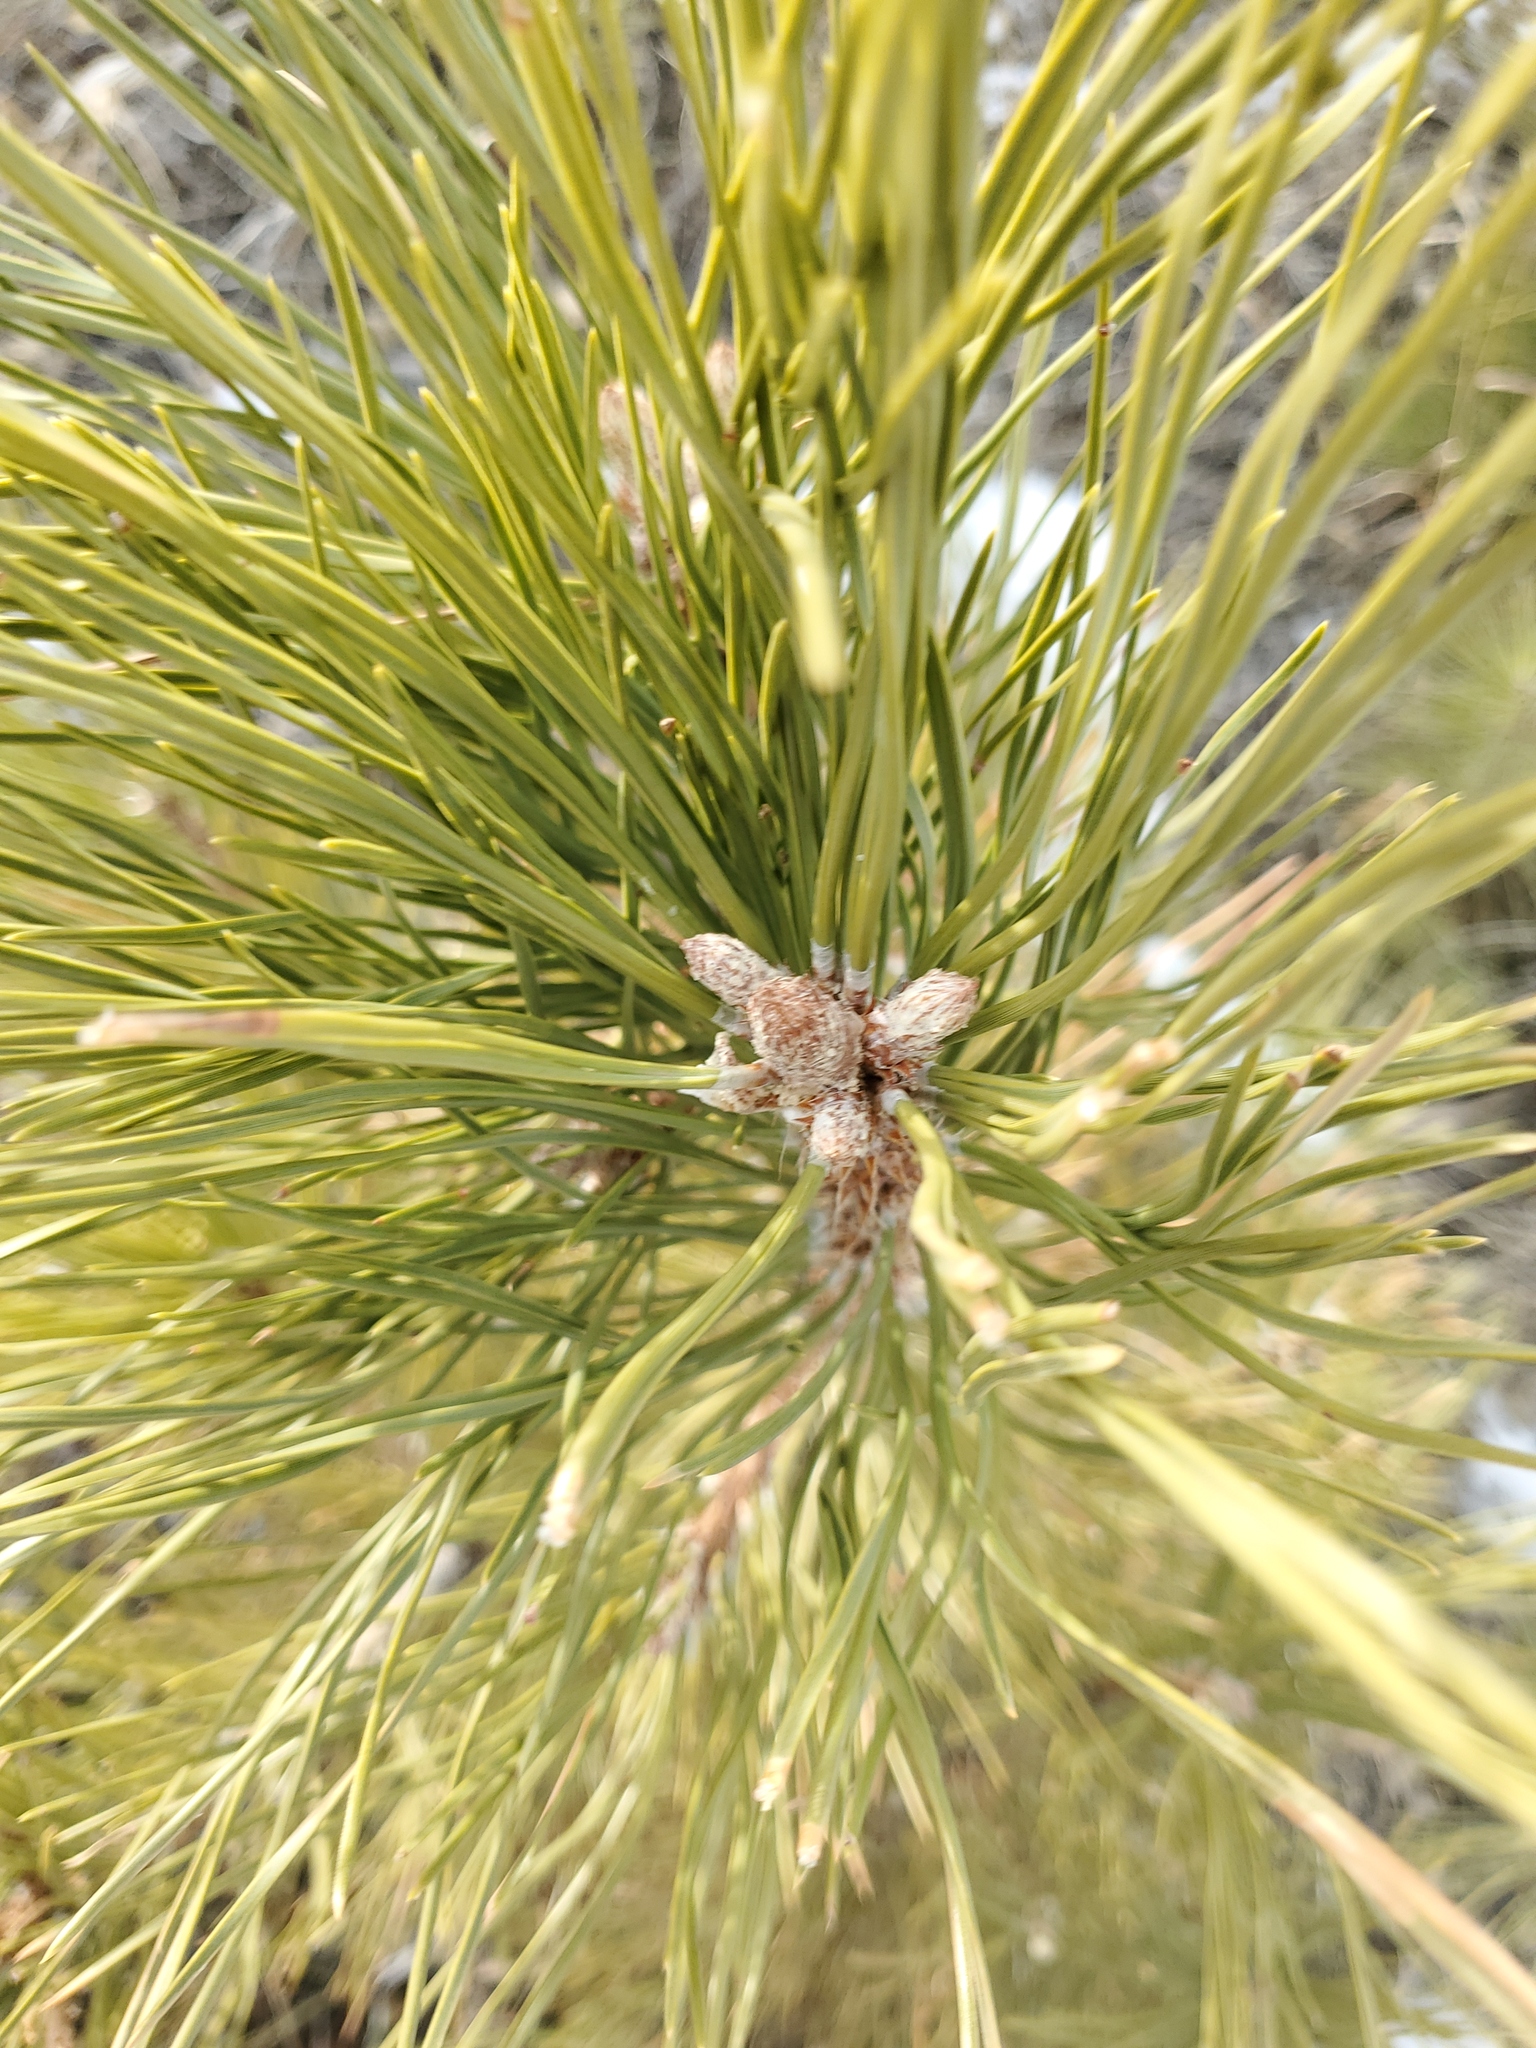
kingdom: Plantae
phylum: Tracheophyta
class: Pinopsida
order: Pinales
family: Pinaceae
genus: Pinus
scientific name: Pinus ponderosa
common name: Western yellow-pine
